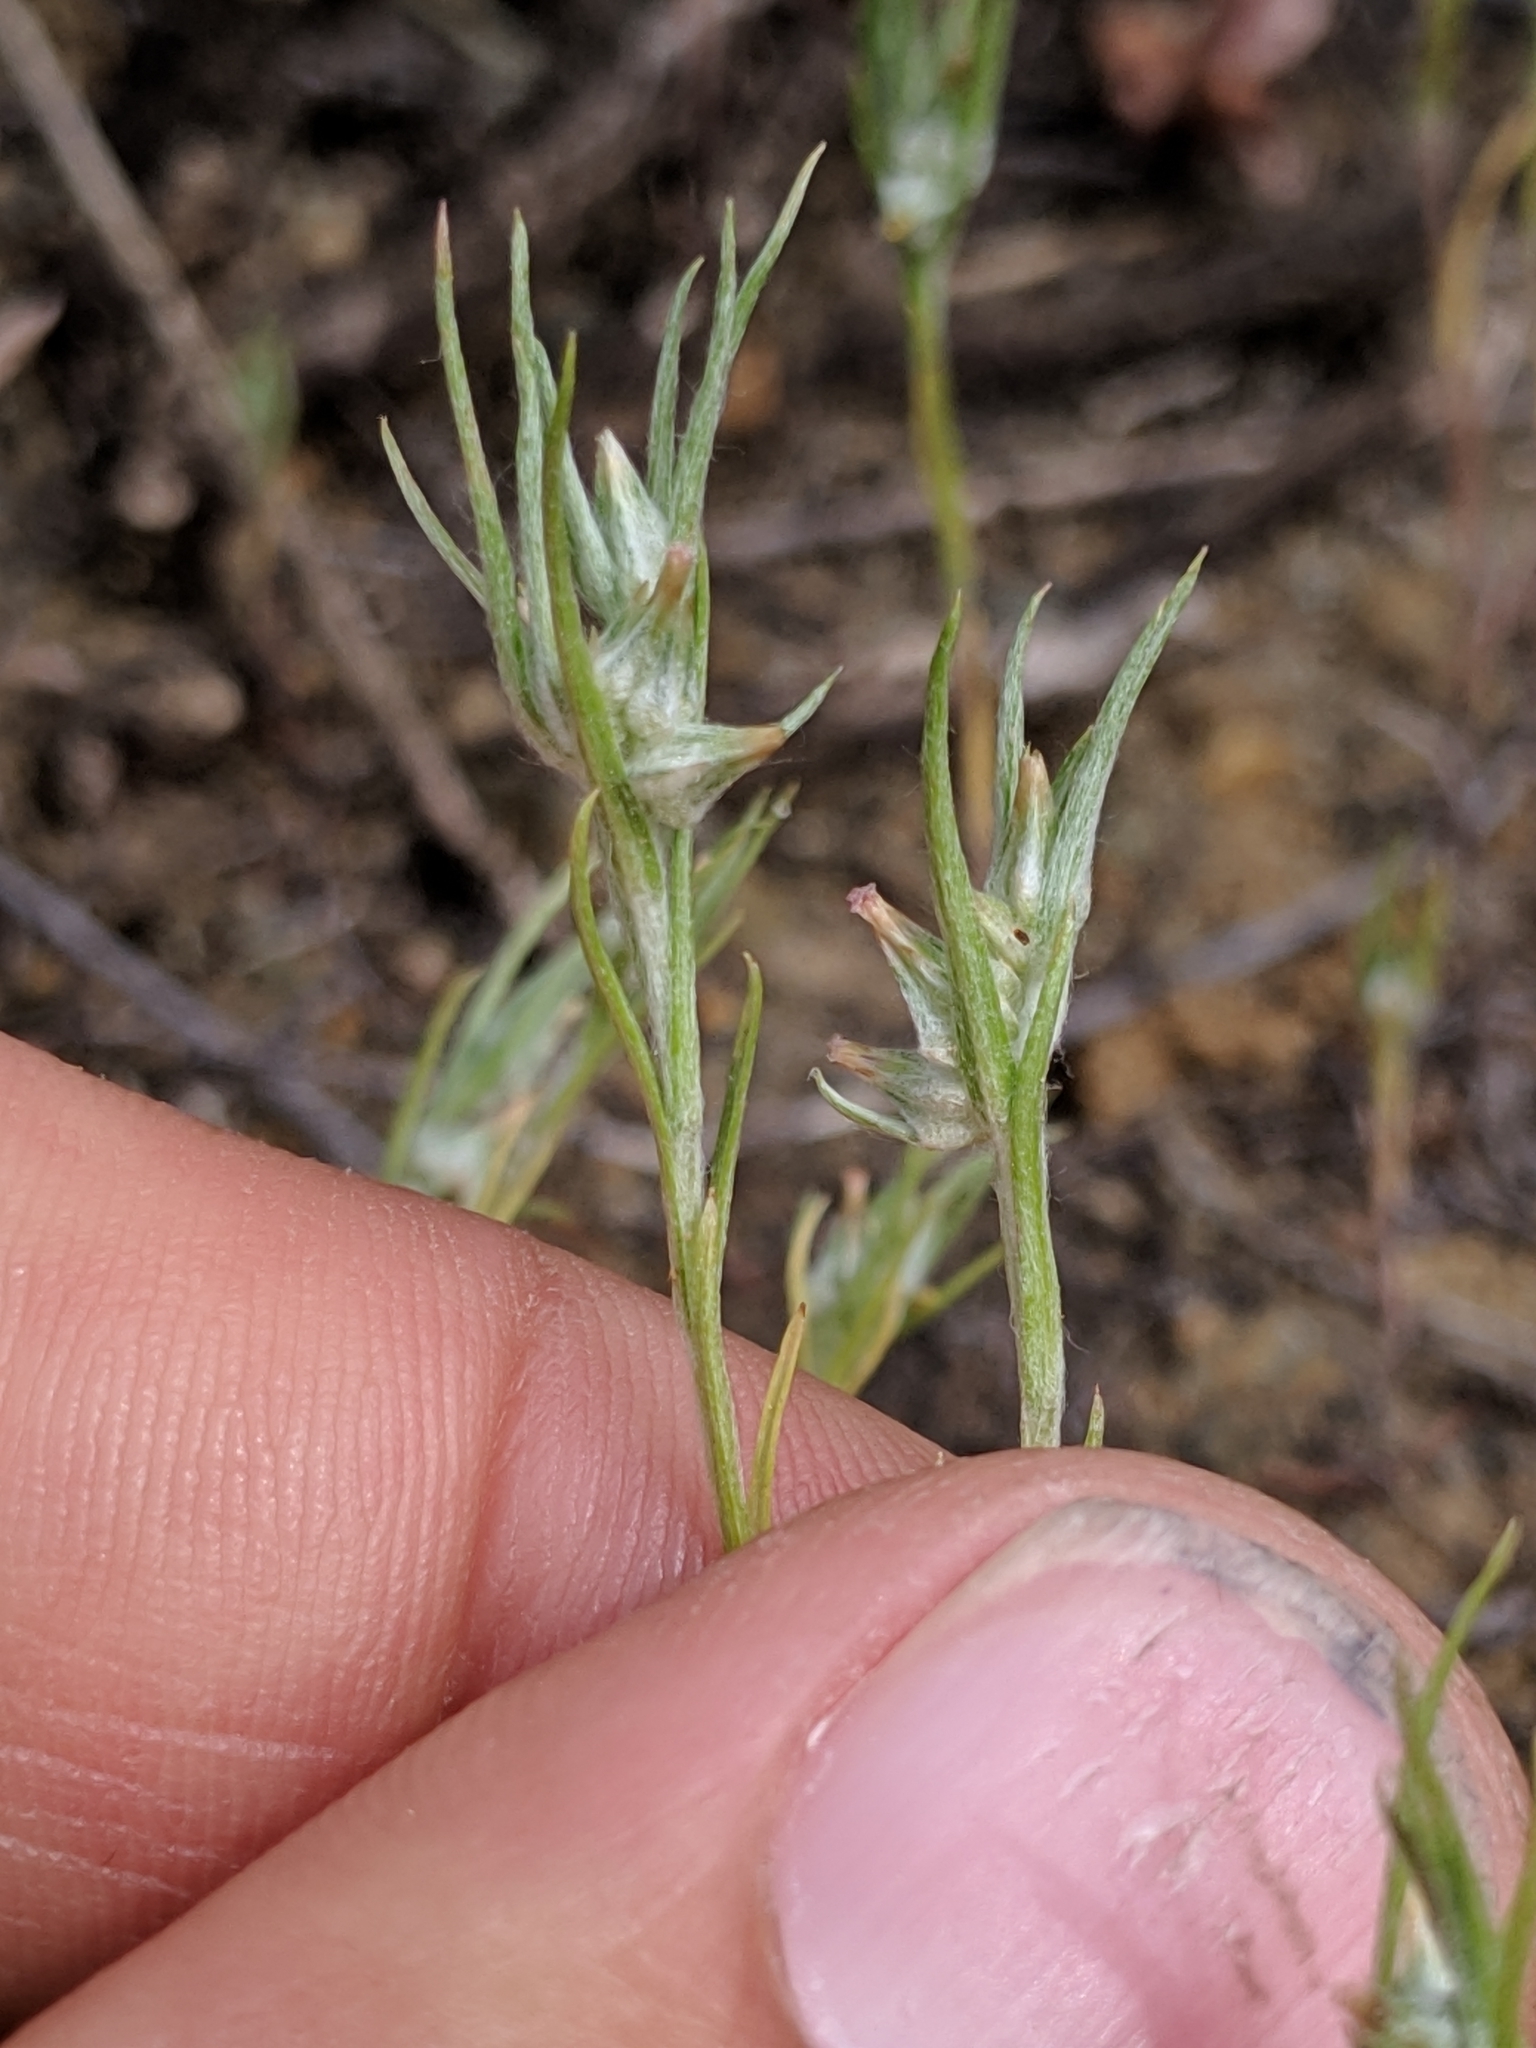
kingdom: Plantae
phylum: Tracheophyta
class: Magnoliopsida
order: Asterales
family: Asteraceae
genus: Logfia
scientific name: Logfia gallica
